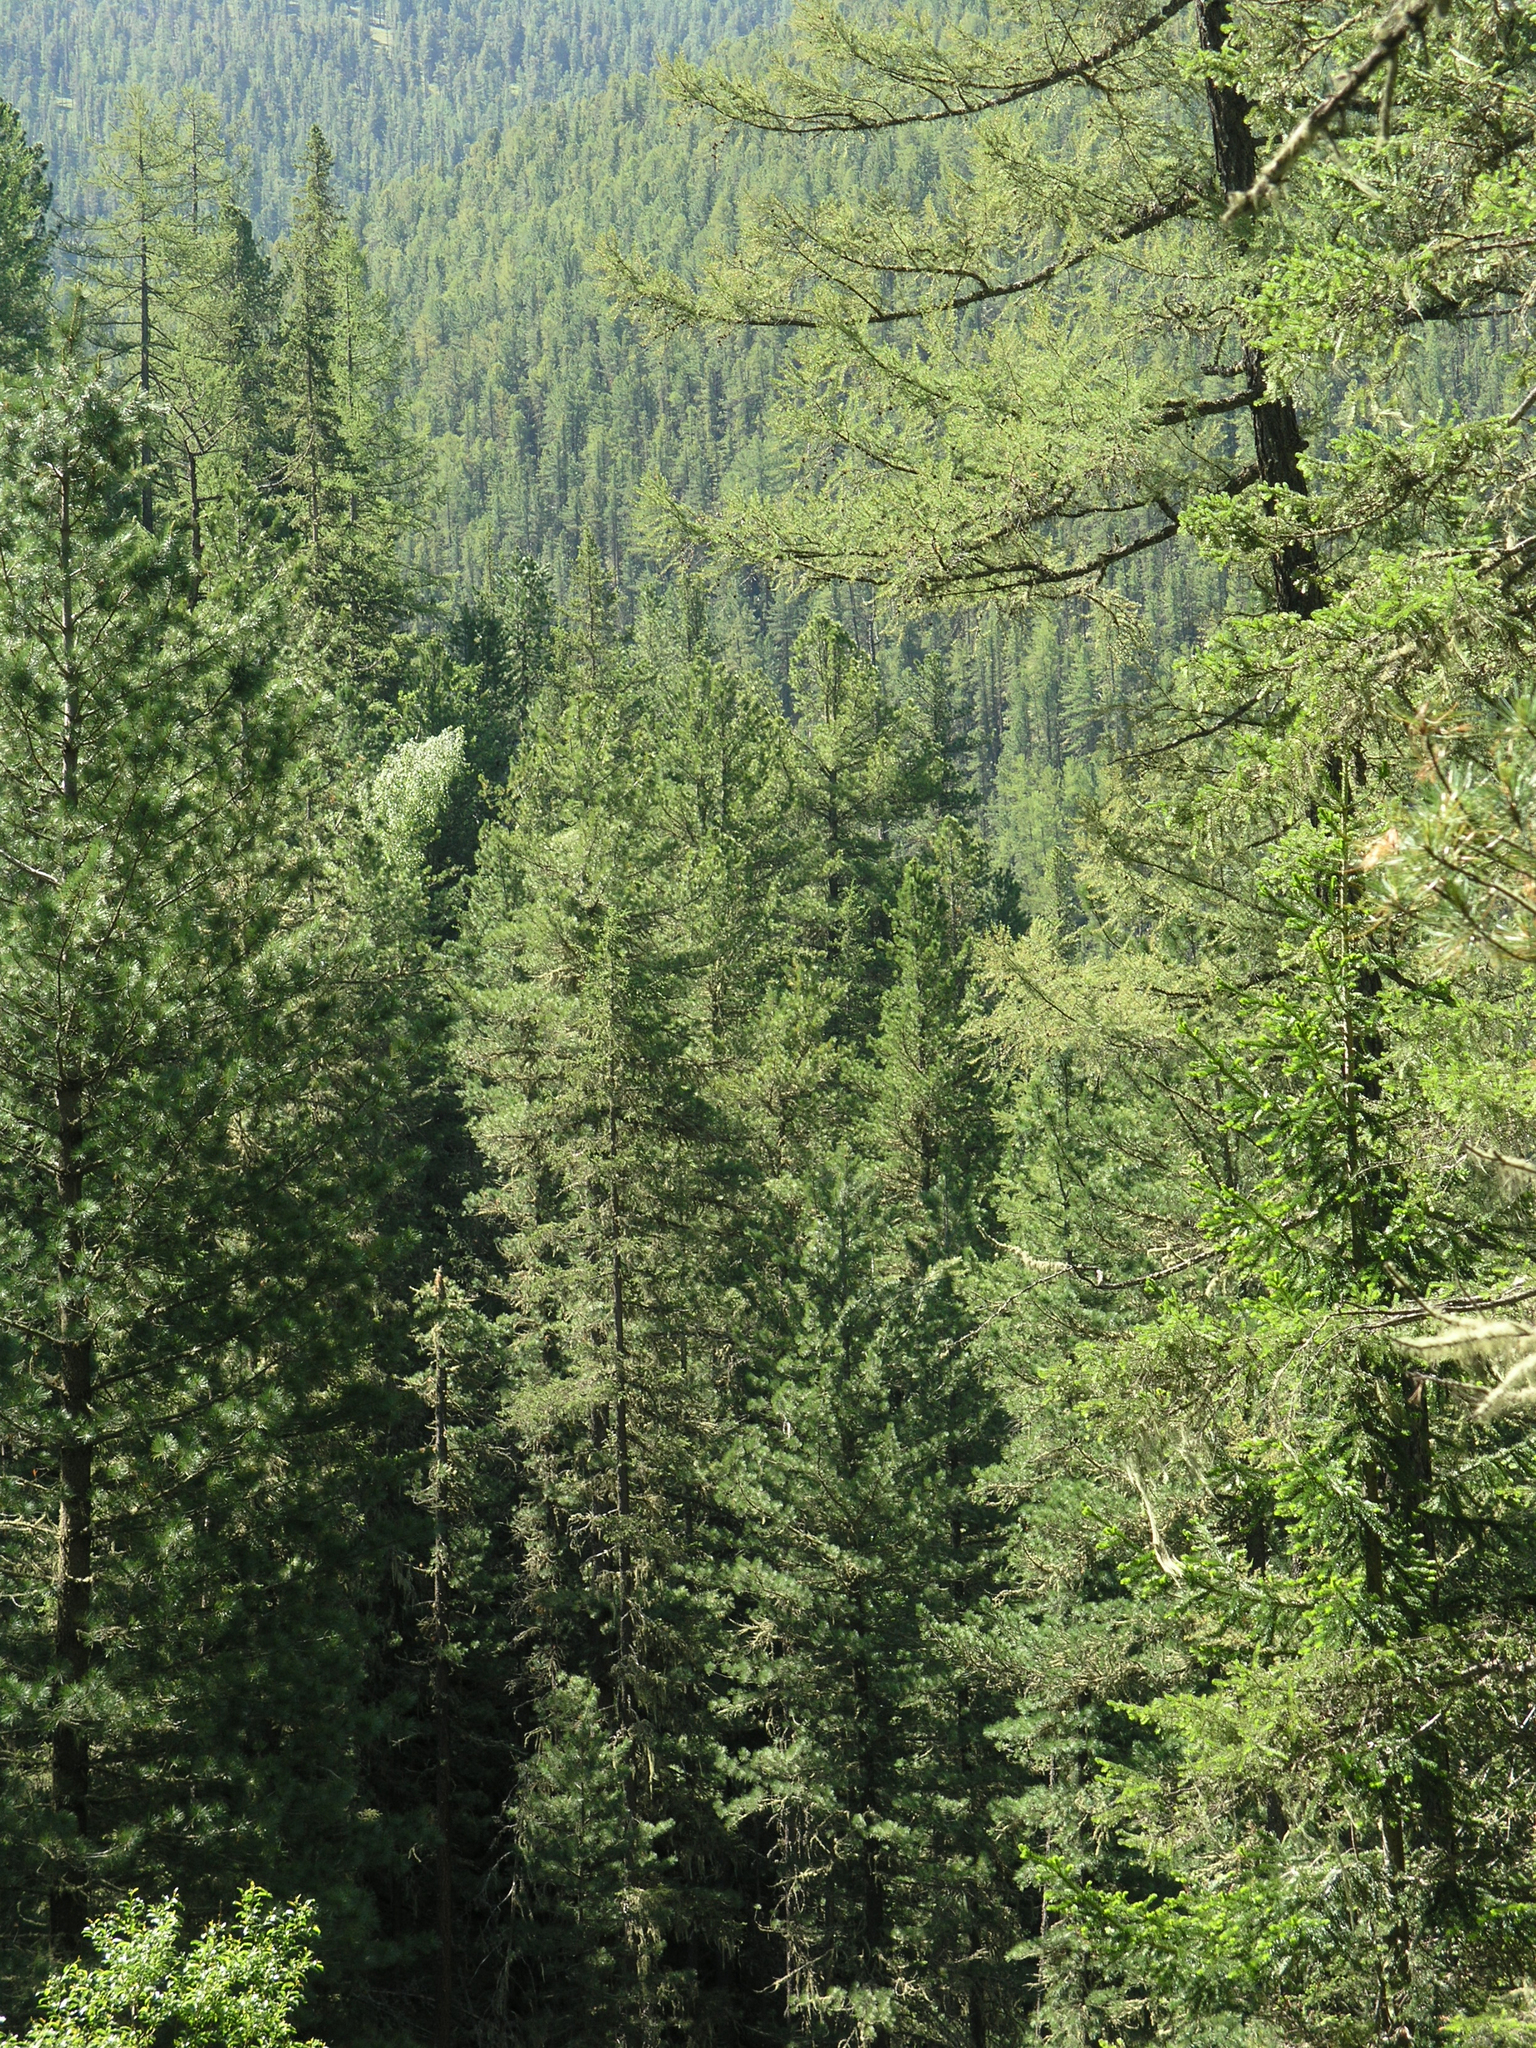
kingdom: Plantae
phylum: Tracheophyta
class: Pinopsida
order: Pinales
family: Pinaceae
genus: Larix
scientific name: Larix sibirica
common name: Siberian larch
